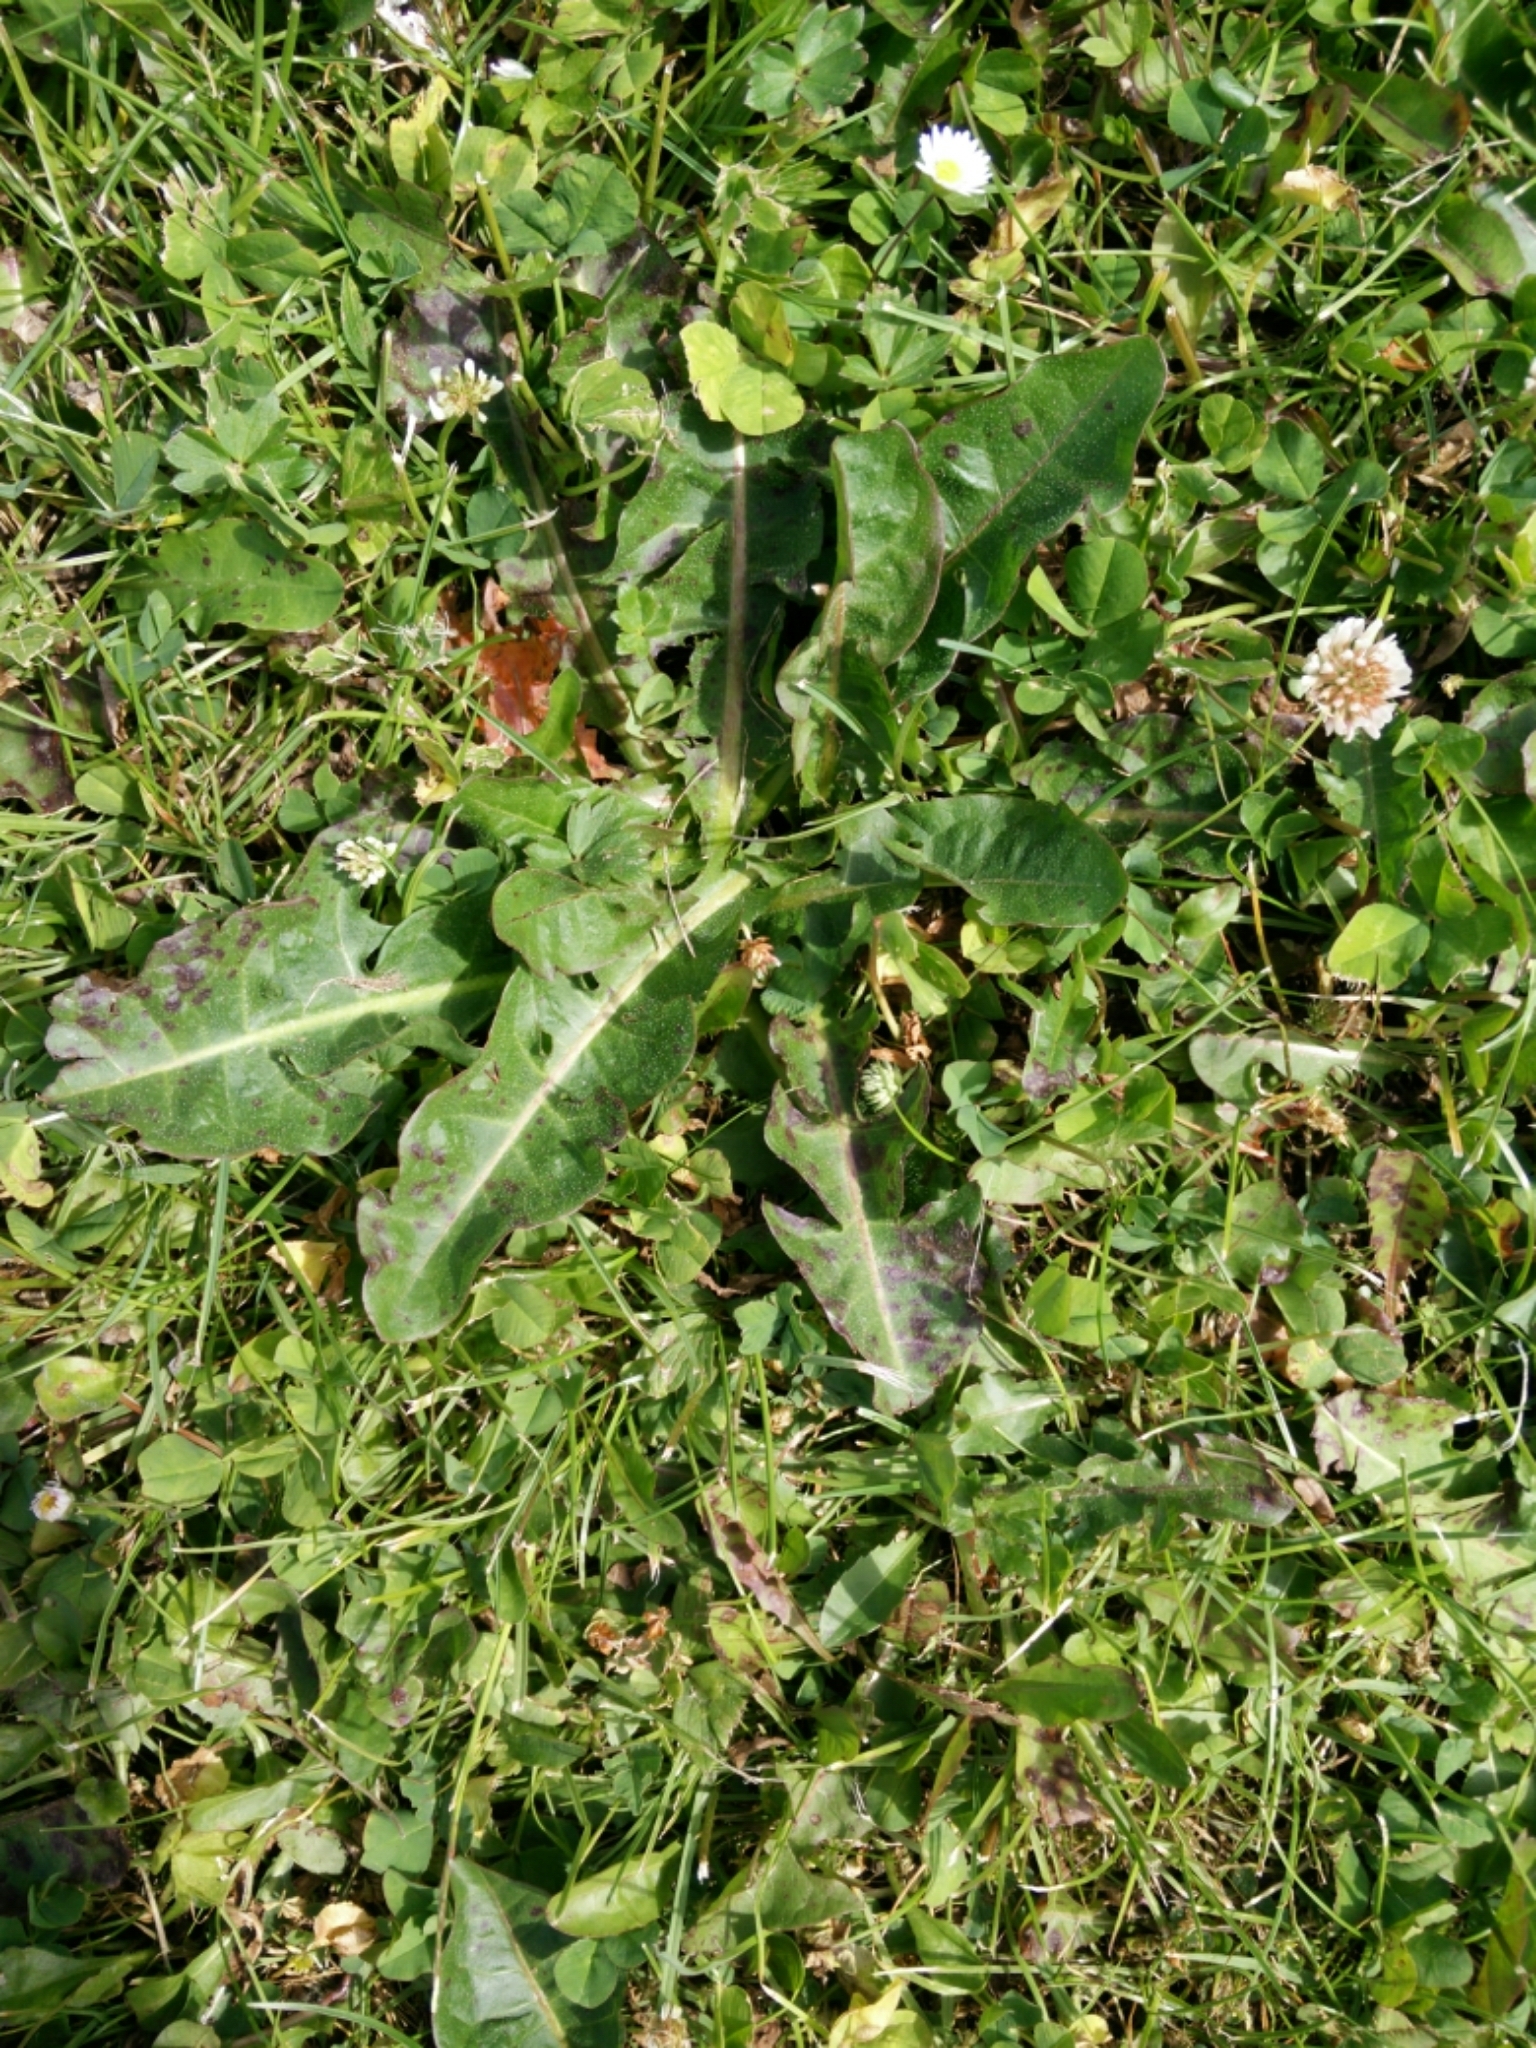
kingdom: Plantae
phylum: Tracheophyta
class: Magnoliopsida
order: Asterales
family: Asteraceae
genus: Taraxacum
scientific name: Taraxacum officinale
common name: Common dandelion
